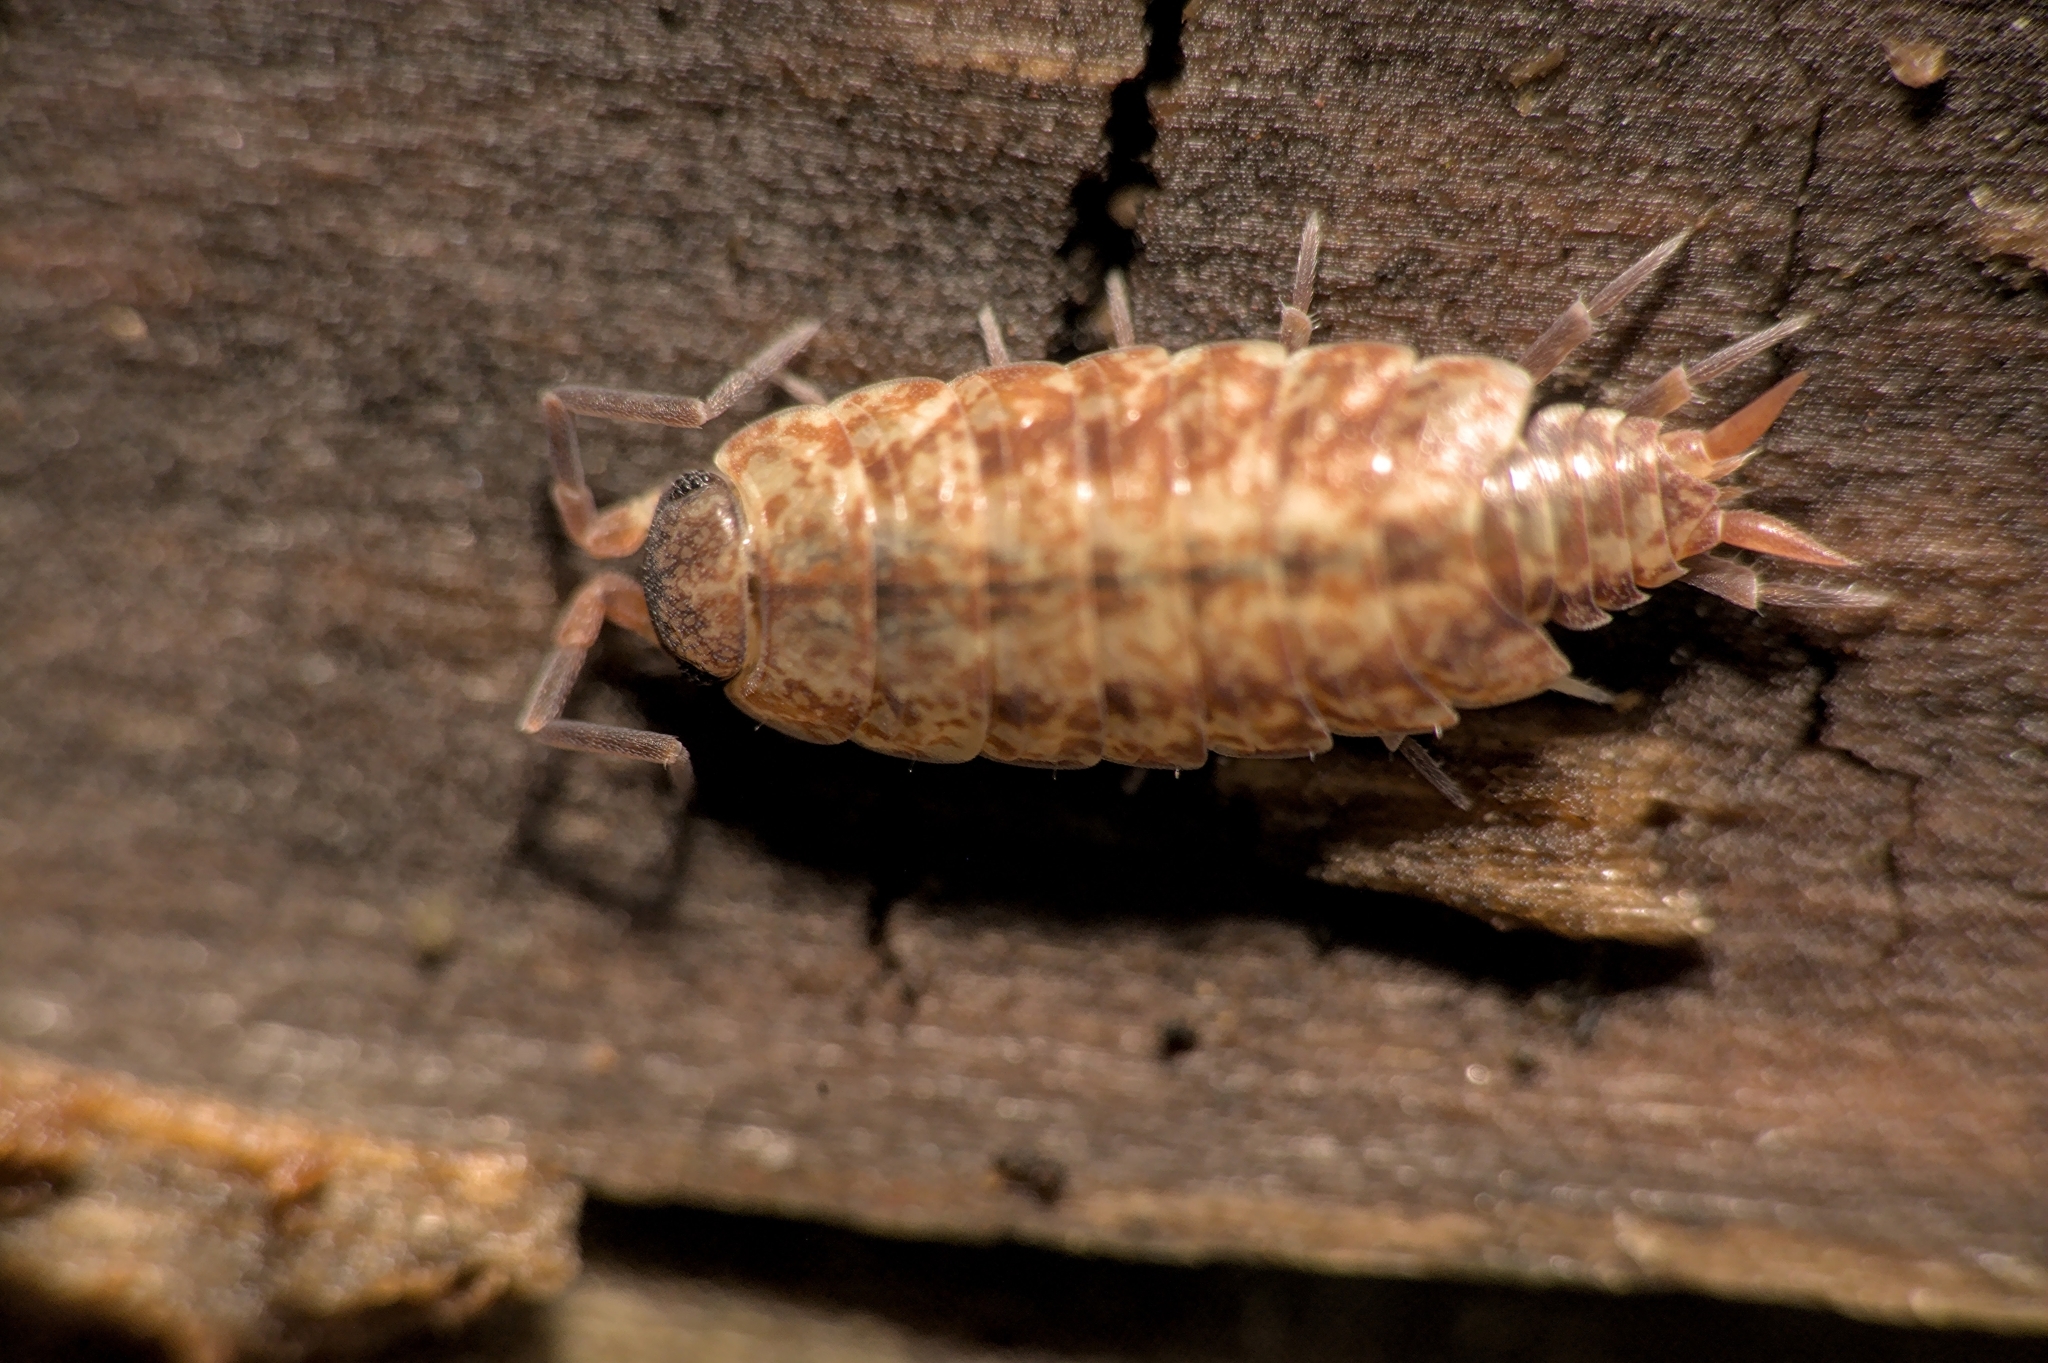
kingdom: Animalia
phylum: Arthropoda
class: Malacostraca
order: Isopoda
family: Porcellionidae
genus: Porcellionides
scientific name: Porcellionides cingendus
